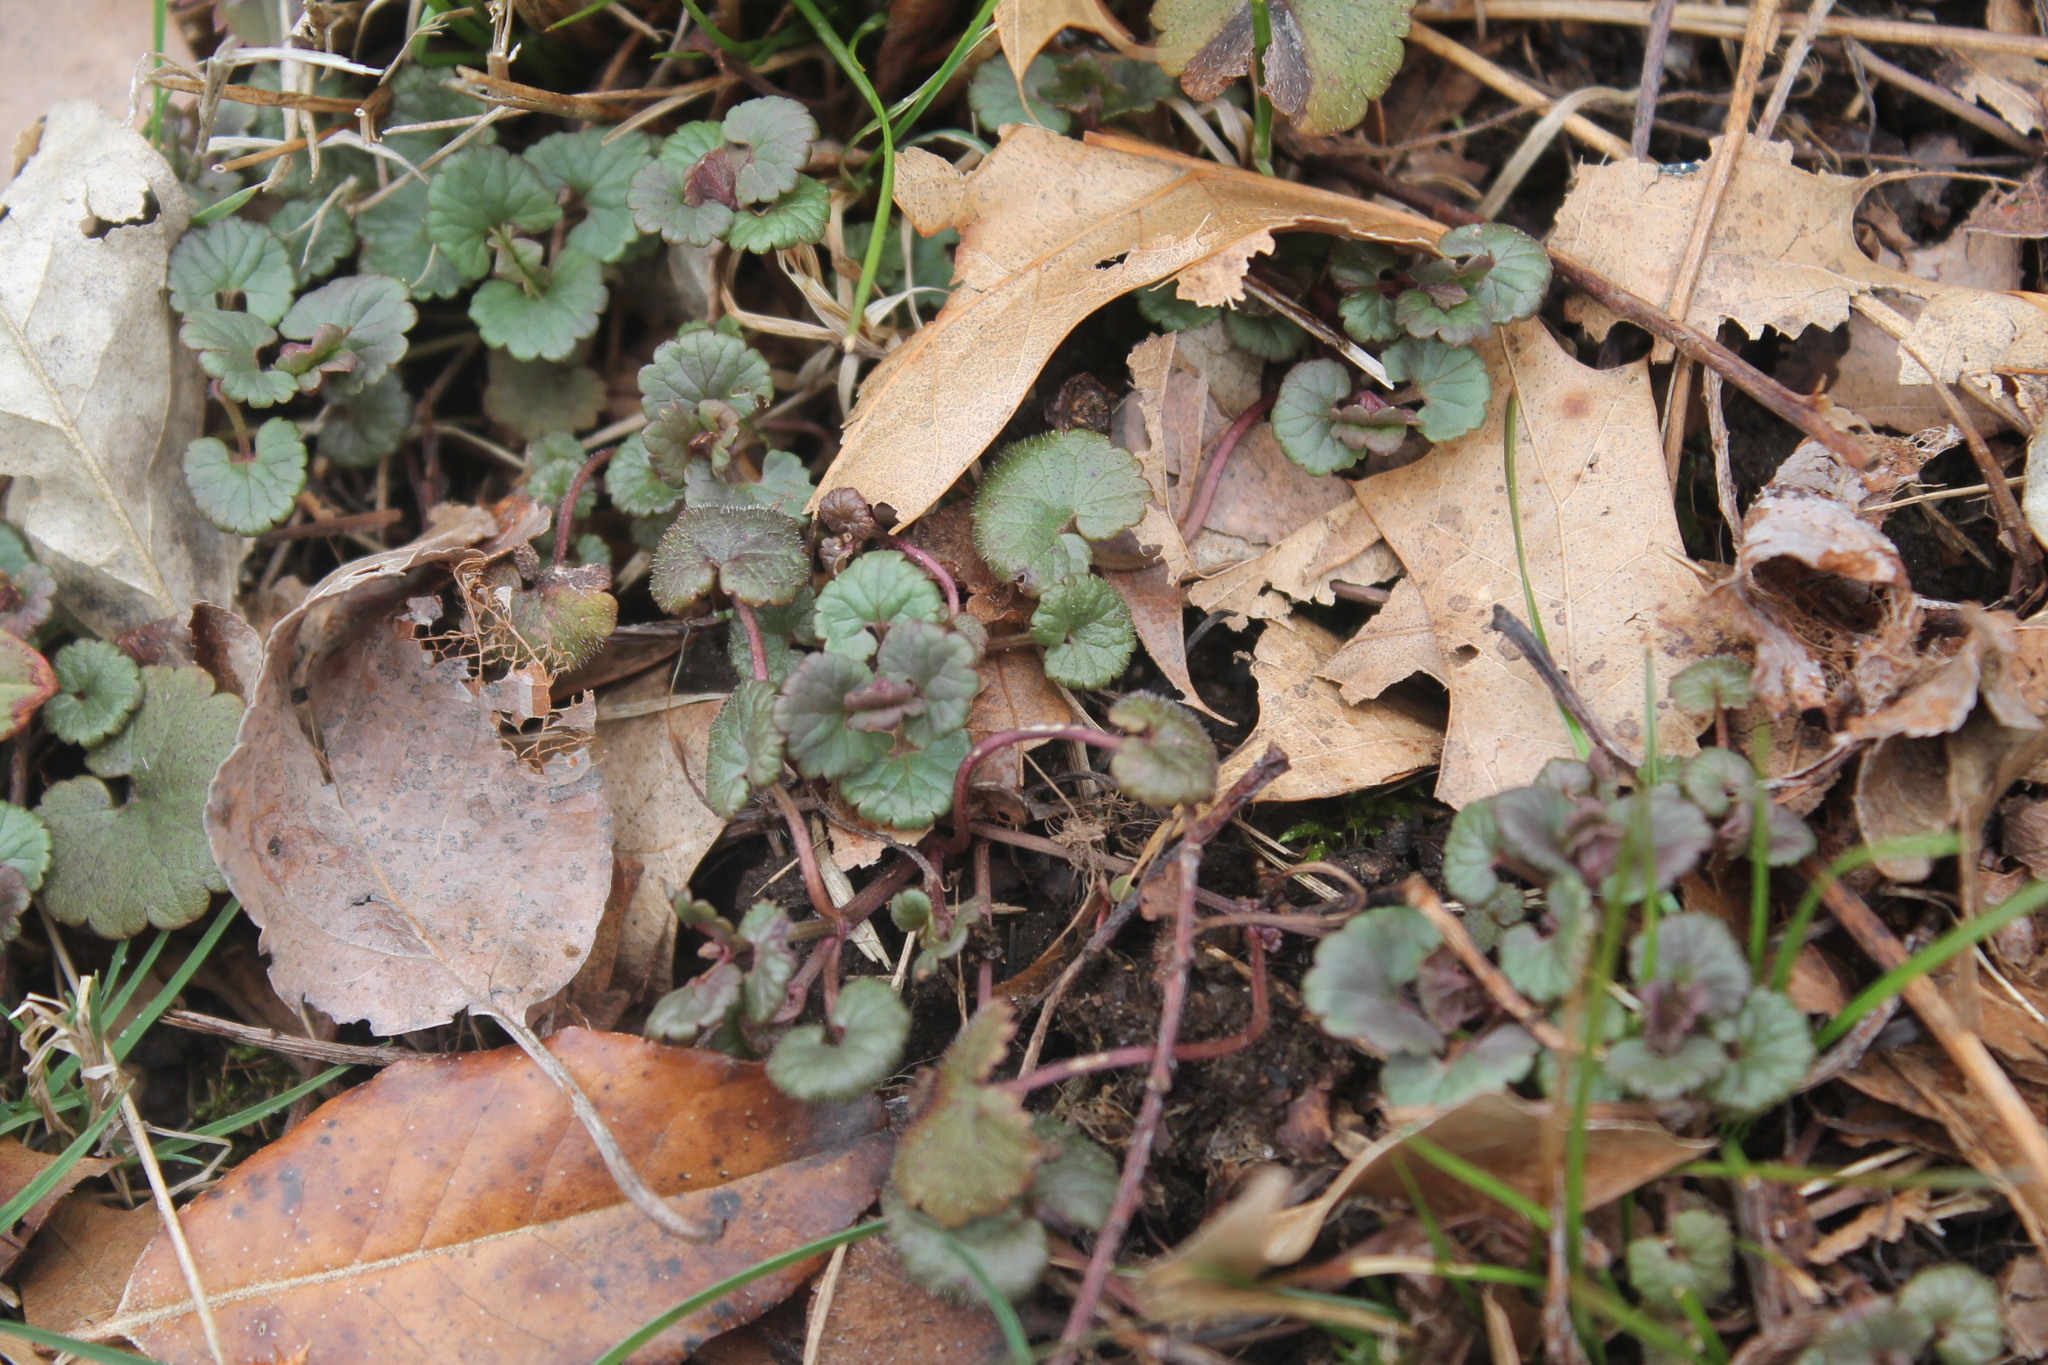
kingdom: Plantae
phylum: Tracheophyta
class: Magnoliopsida
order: Lamiales
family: Lamiaceae
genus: Glechoma
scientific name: Glechoma hederacea
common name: Ground ivy
